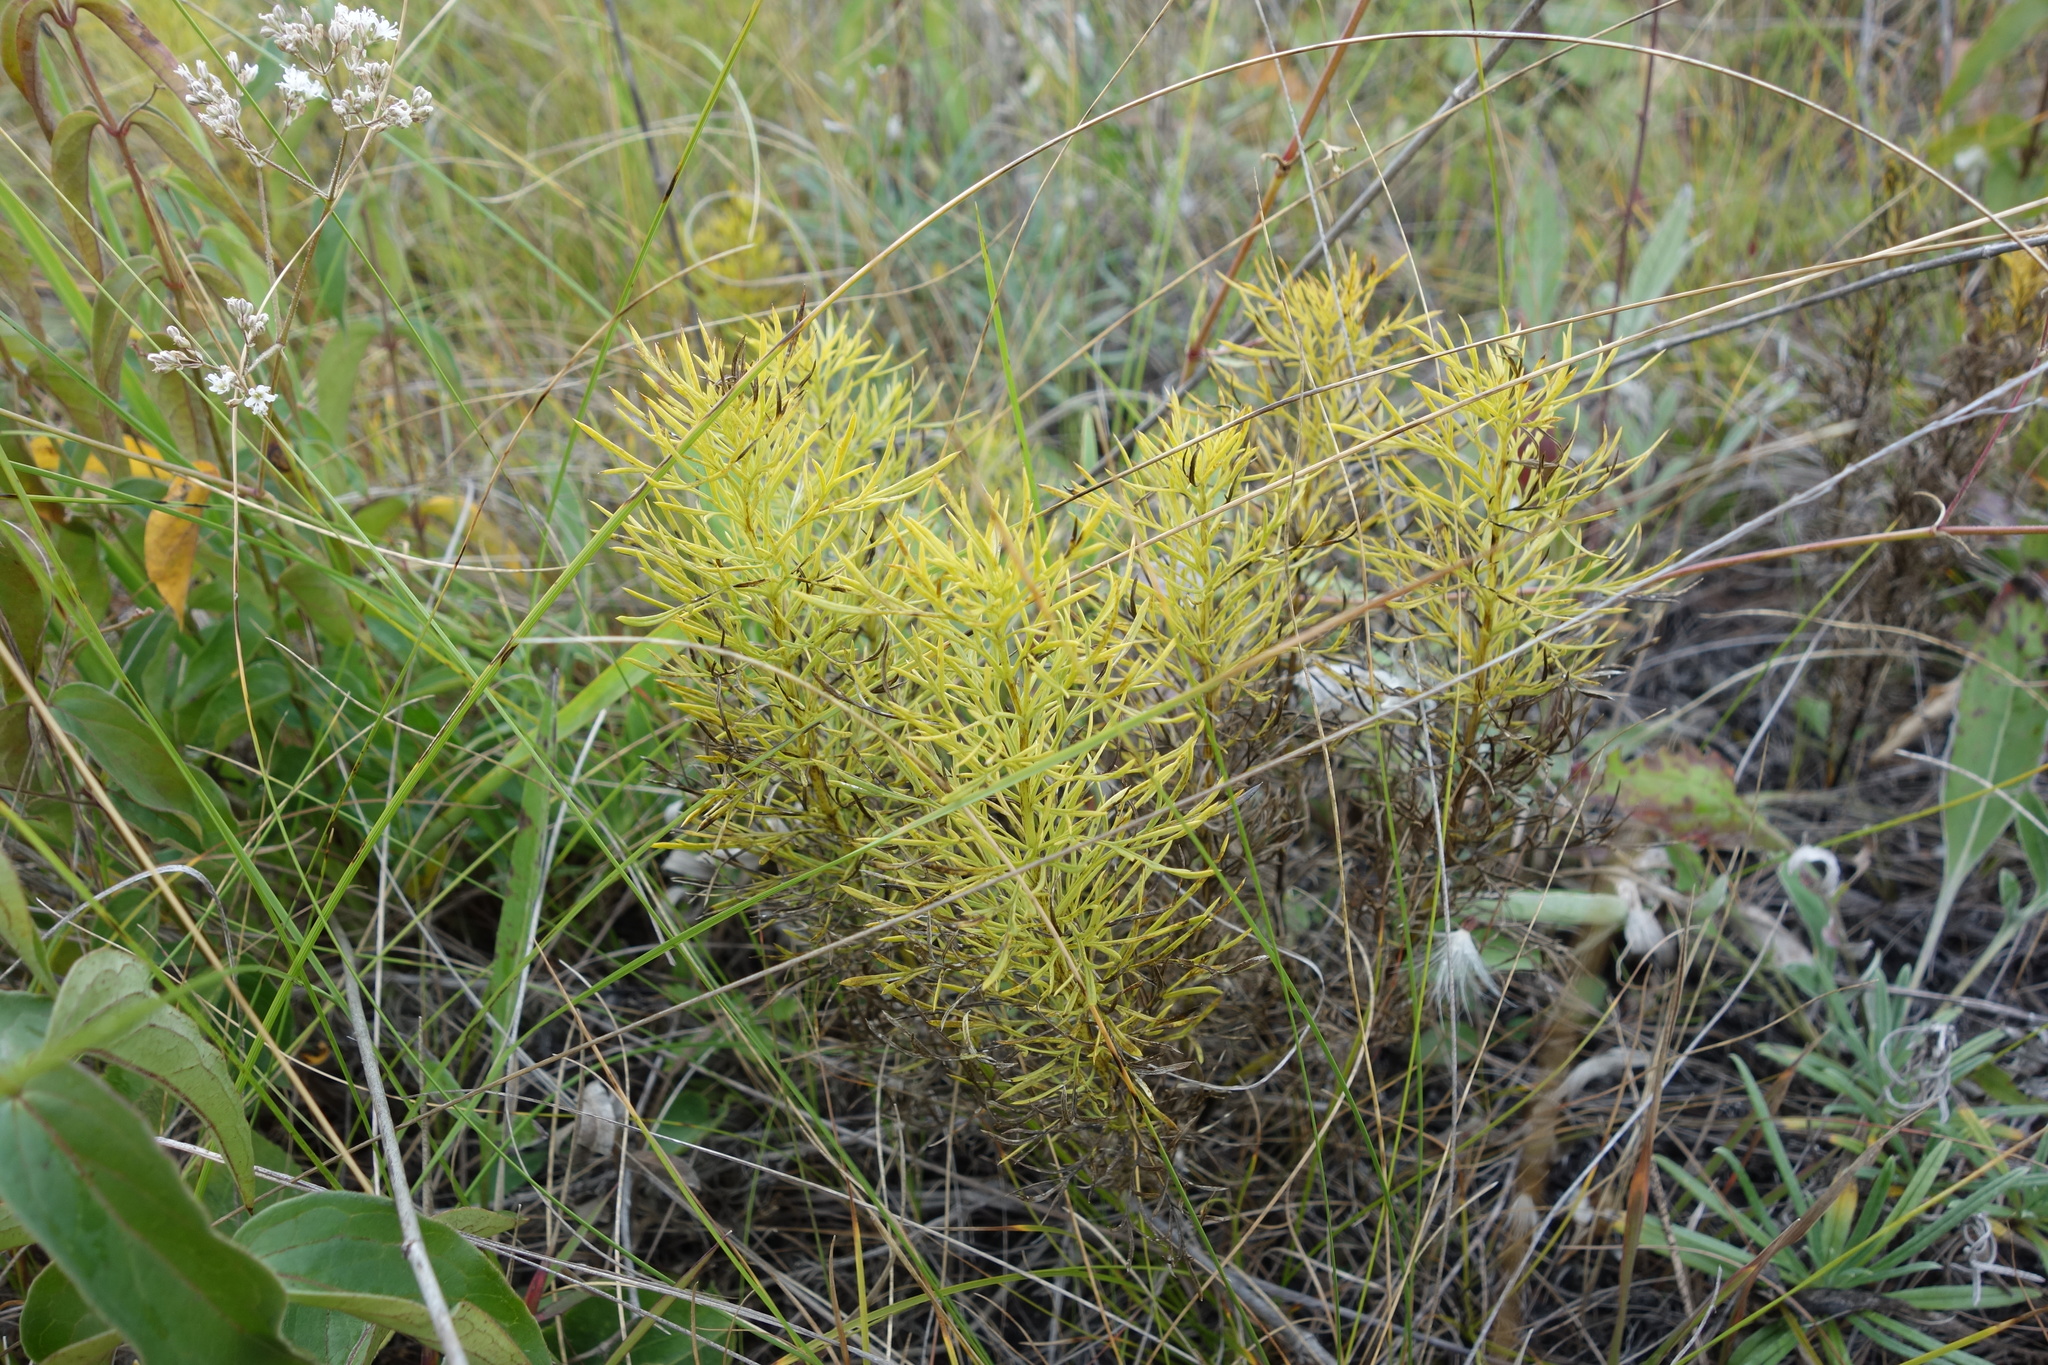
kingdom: Plantae
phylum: Tracheophyta
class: Magnoliopsida
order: Ranunculales
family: Ranunculaceae
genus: Adonis
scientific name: Adonis vernalis
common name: Yellow pheasants-eye
